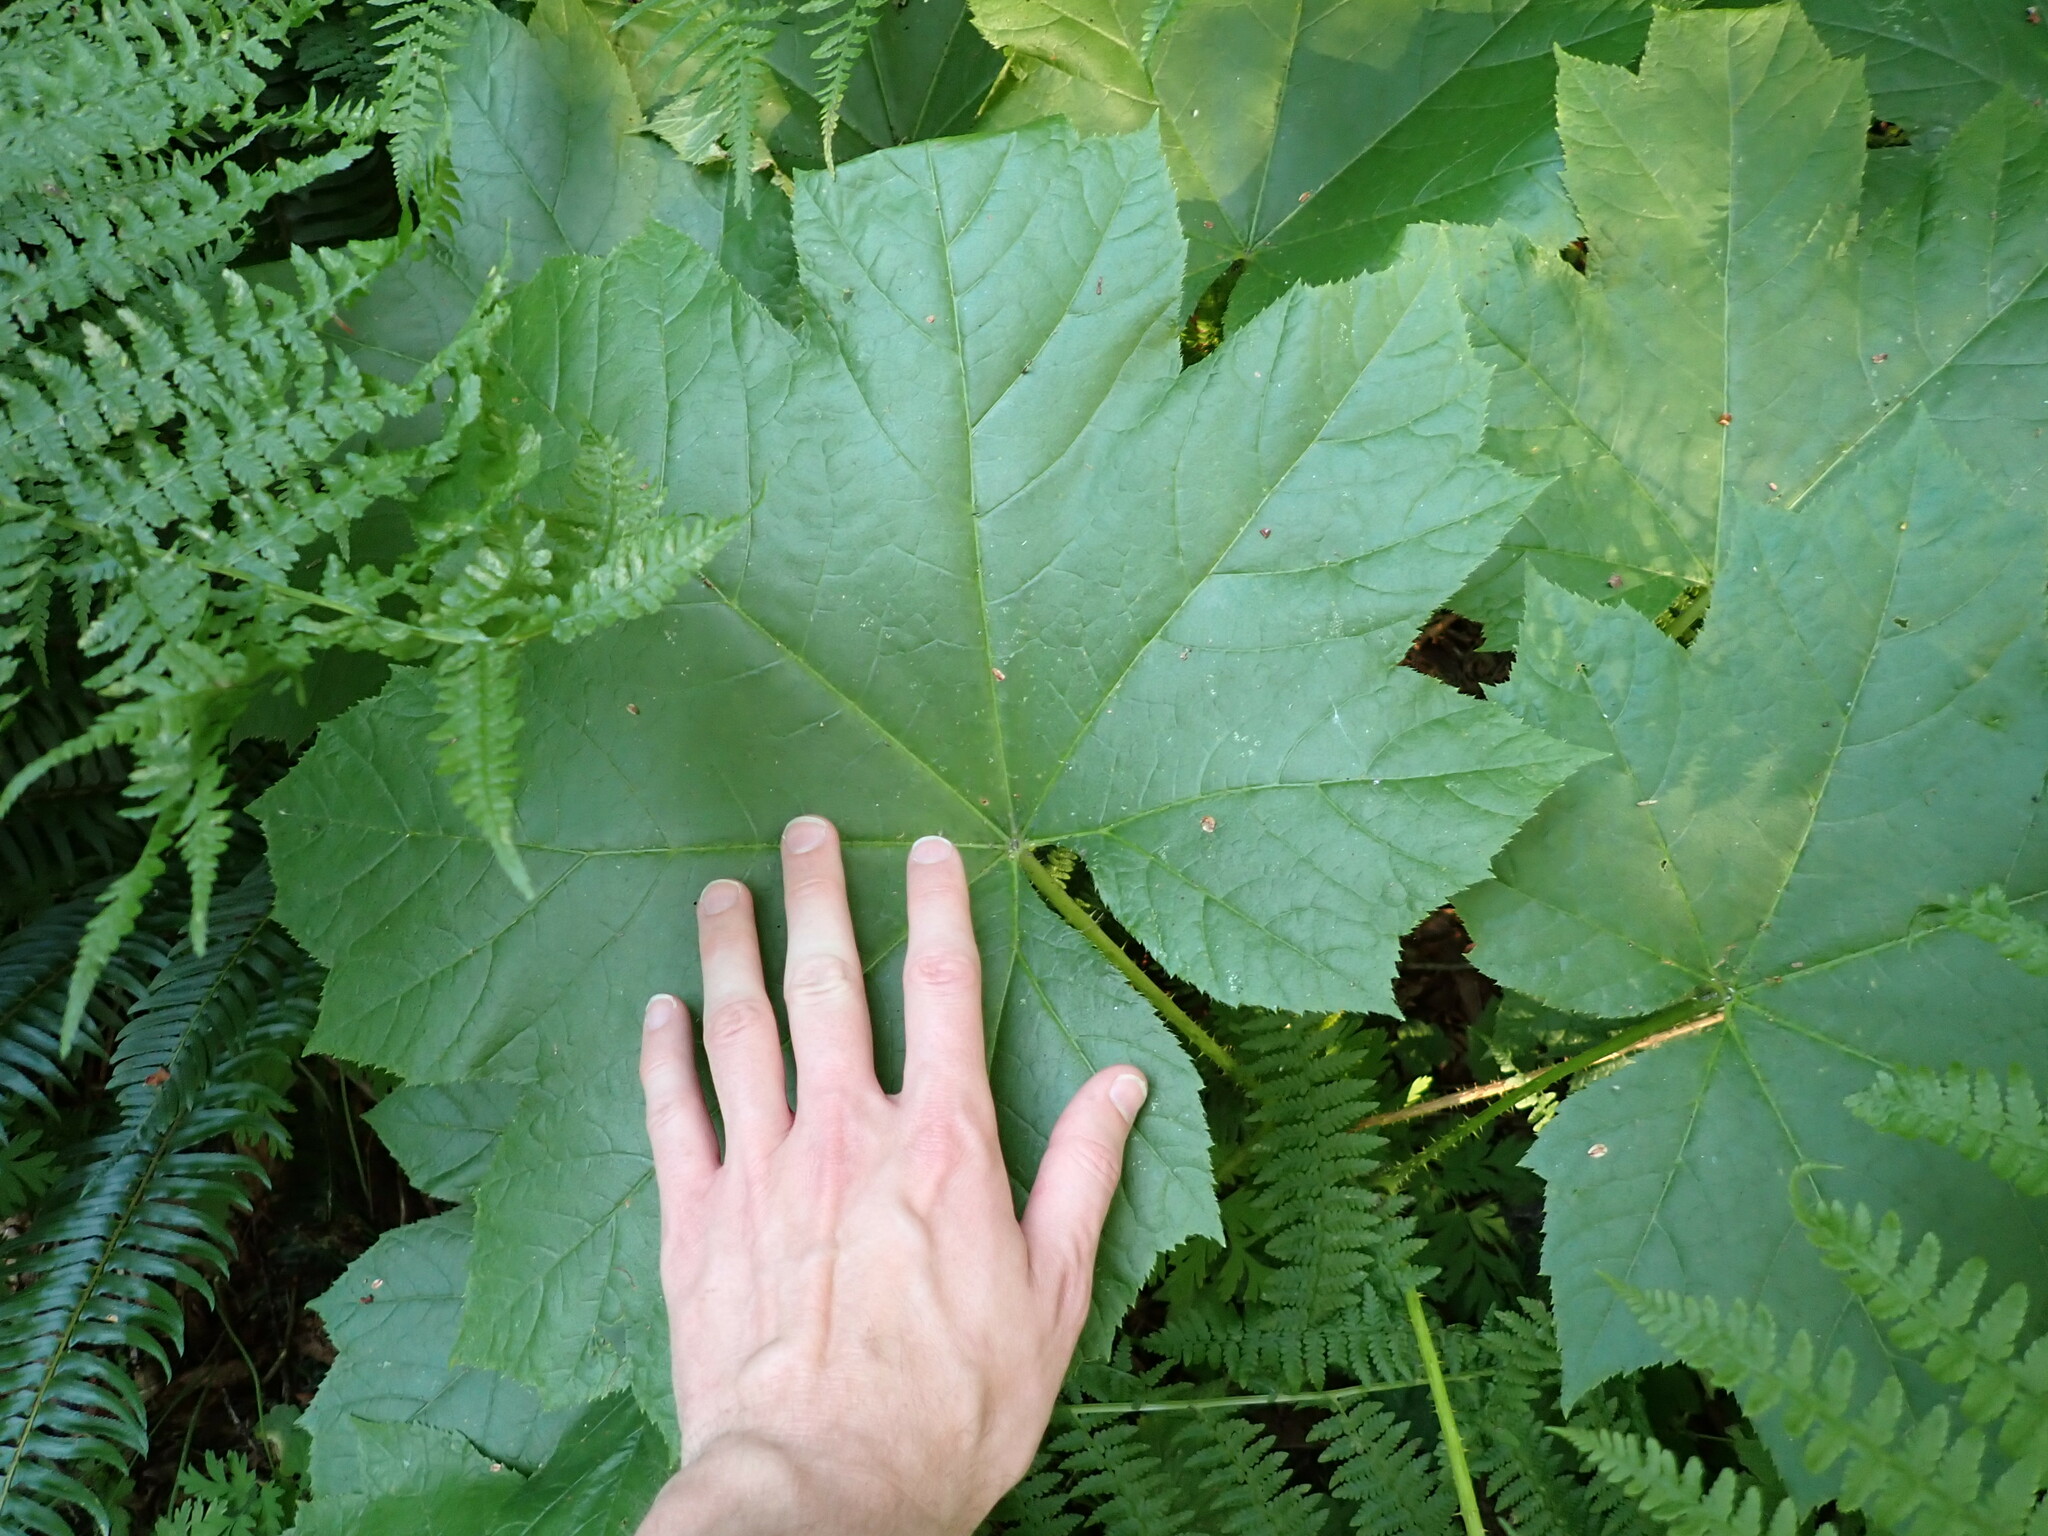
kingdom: Plantae
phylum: Tracheophyta
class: Magnoliopsida
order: Apiales
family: Araliaceae
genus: Oplopanax
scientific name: Oplopanax horridus
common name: Devil's walking-stick
